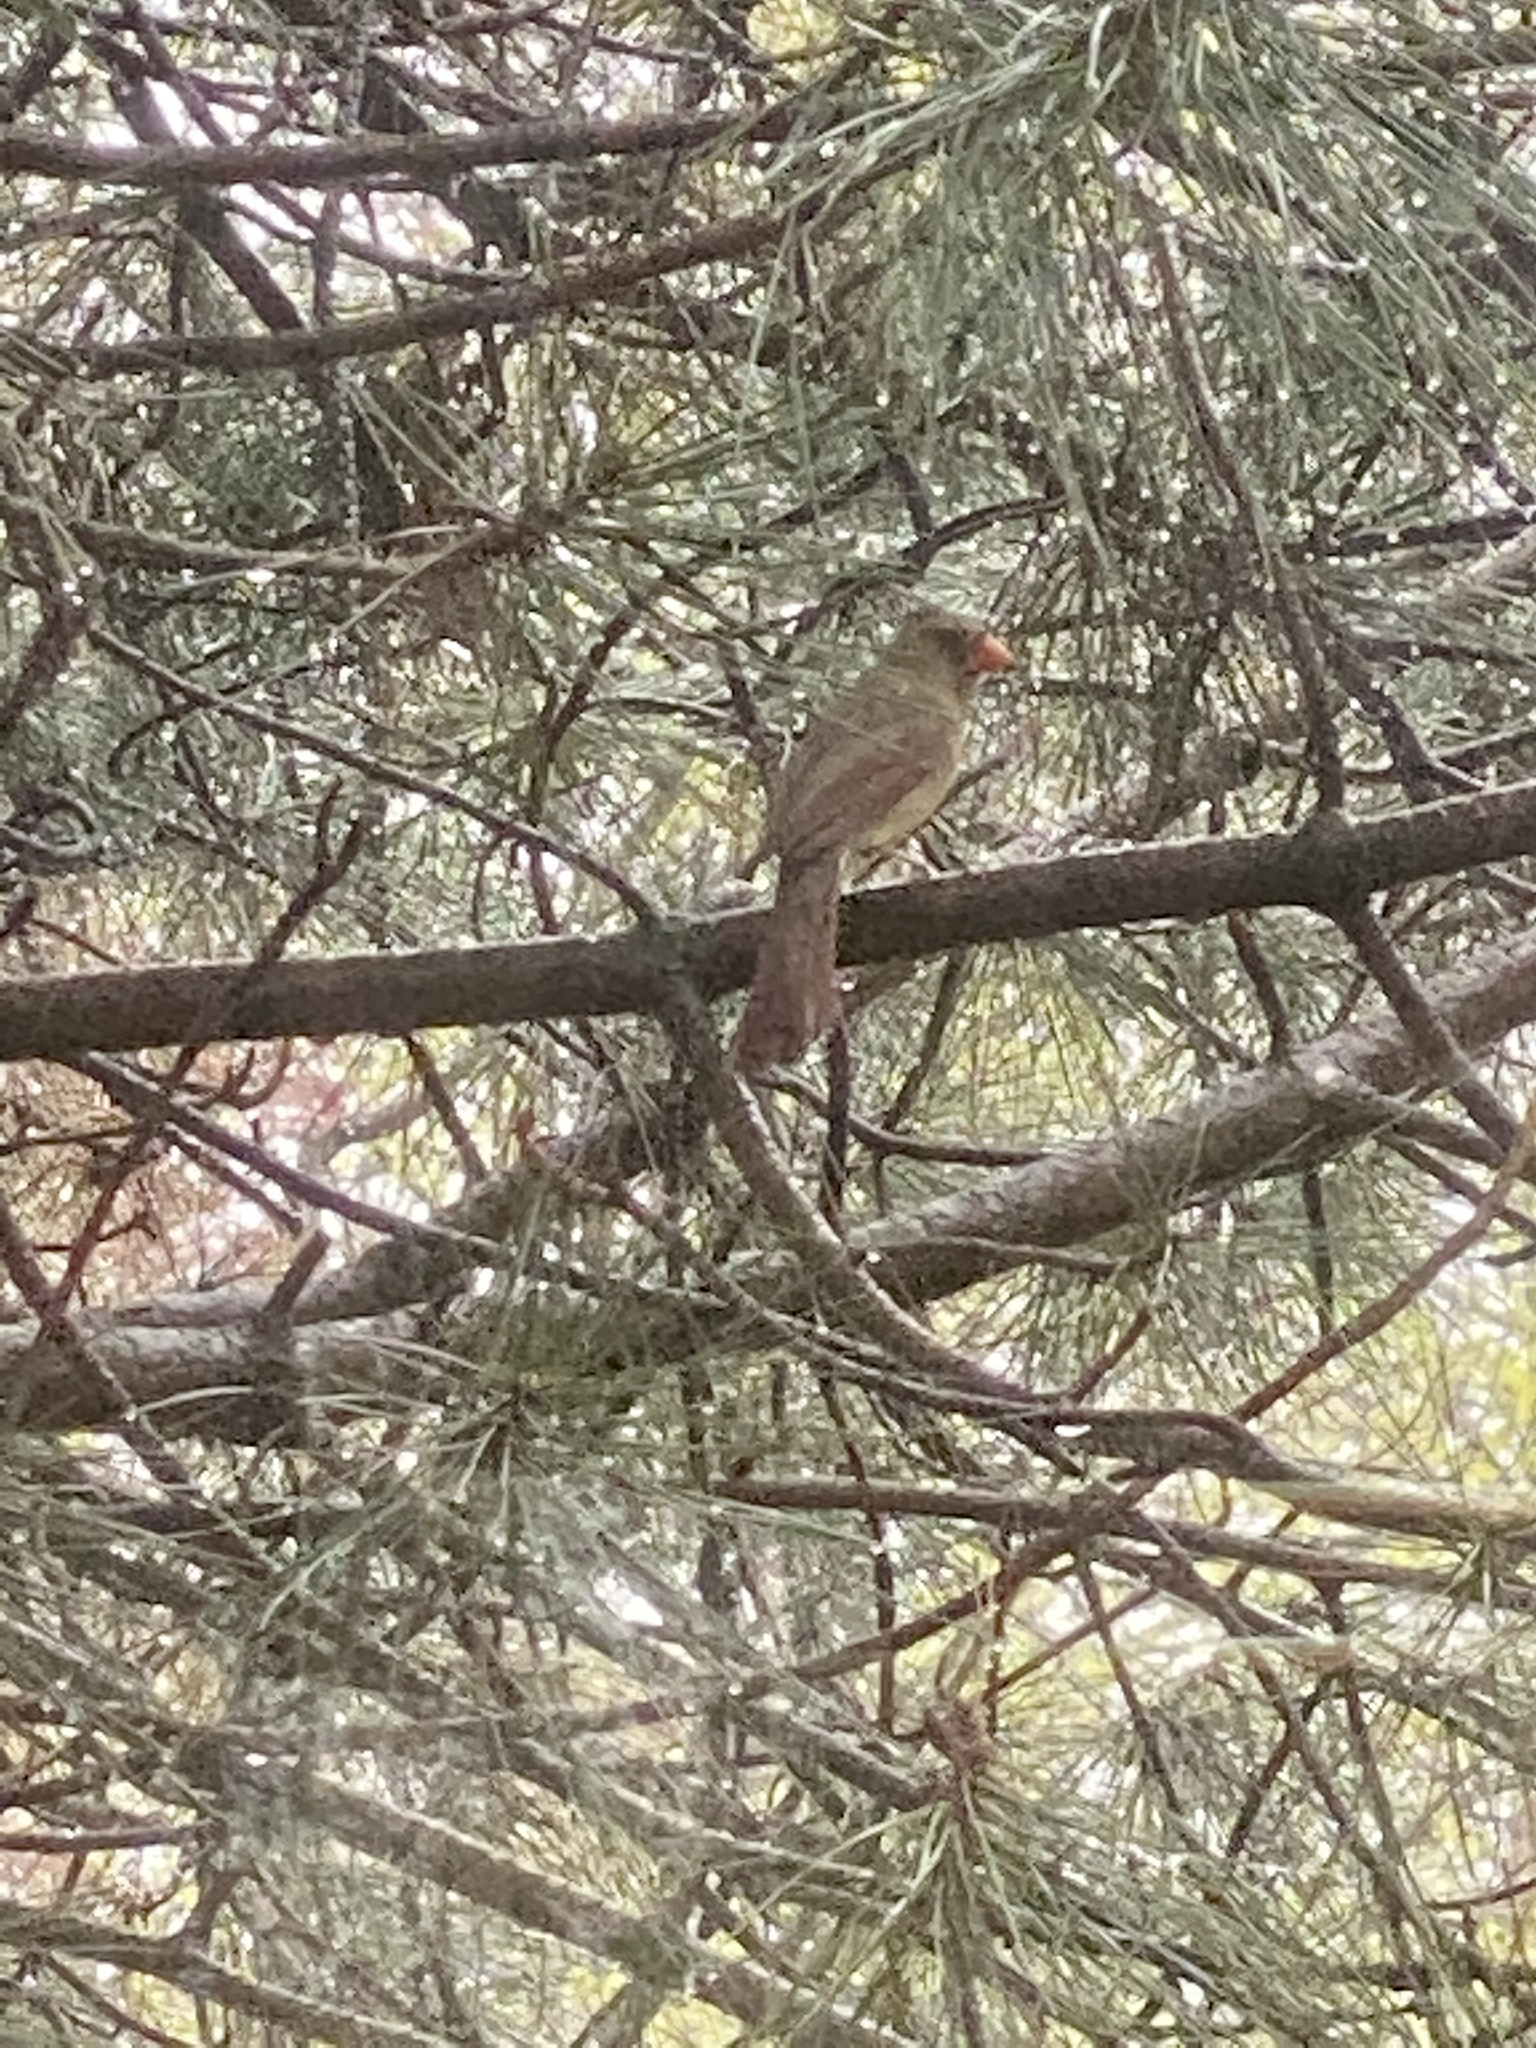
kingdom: Animalia
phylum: Chordata
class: Aves
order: Passeriformes
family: Cardinalidae
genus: Cardinalis
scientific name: Cardinalis cardinalis
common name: Northern cardinal
